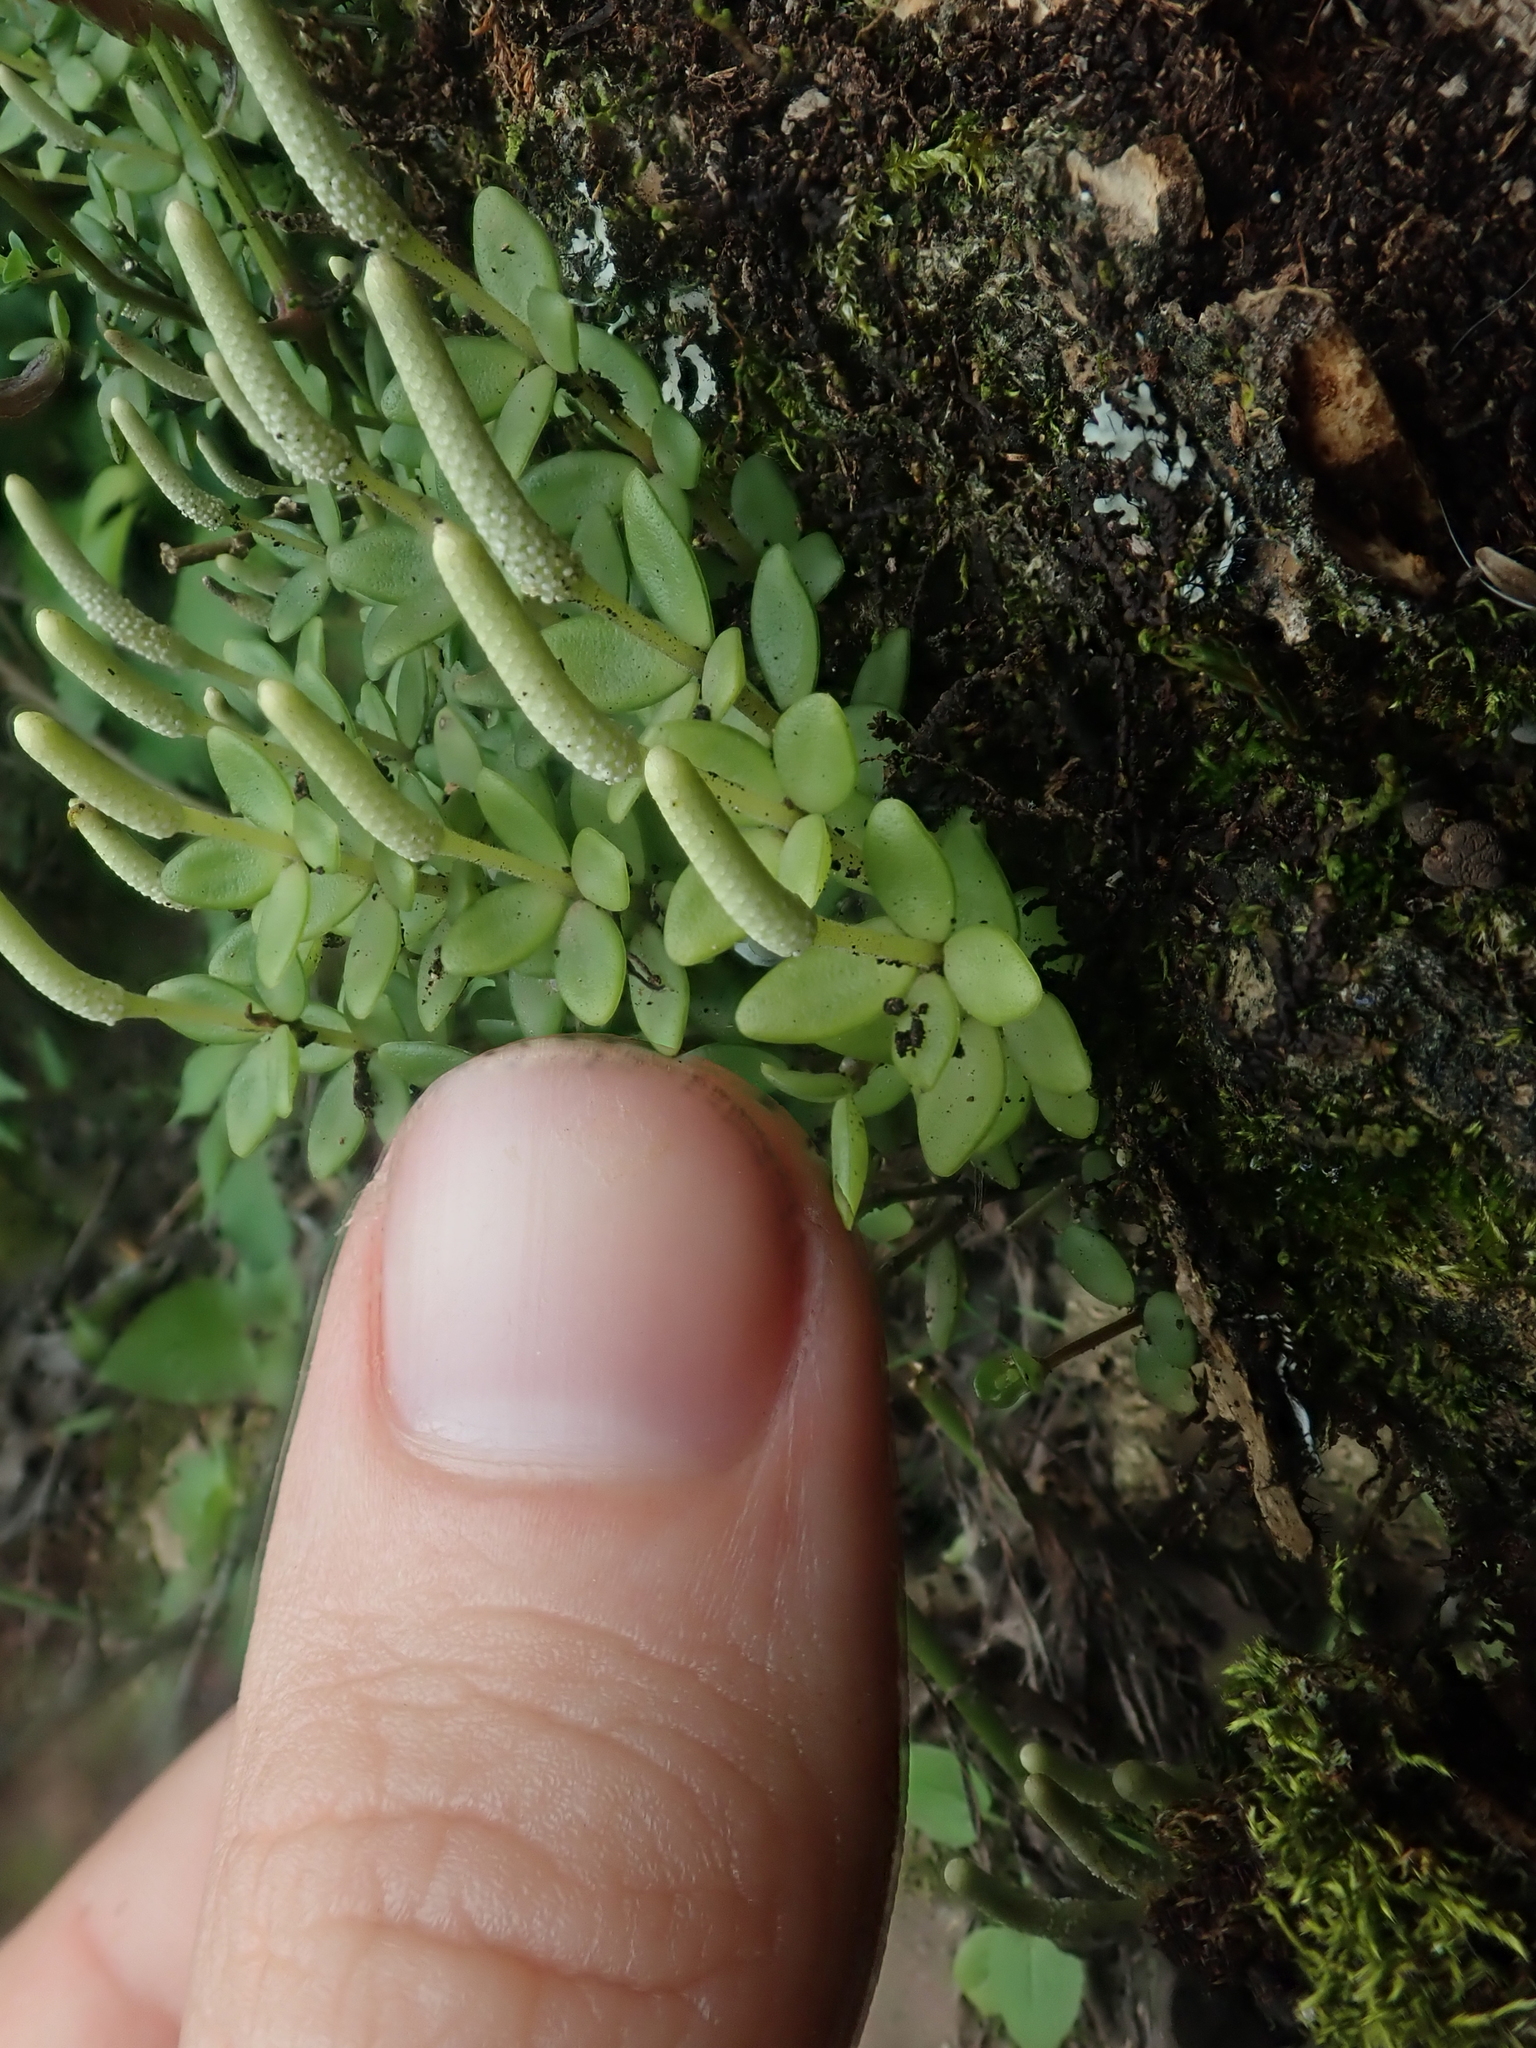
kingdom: Plantae
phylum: Tracheophyta
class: Magnoliopsida
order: Piperales
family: Piperaceae
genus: Peperomia
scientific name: Peperomia tetraphylla
